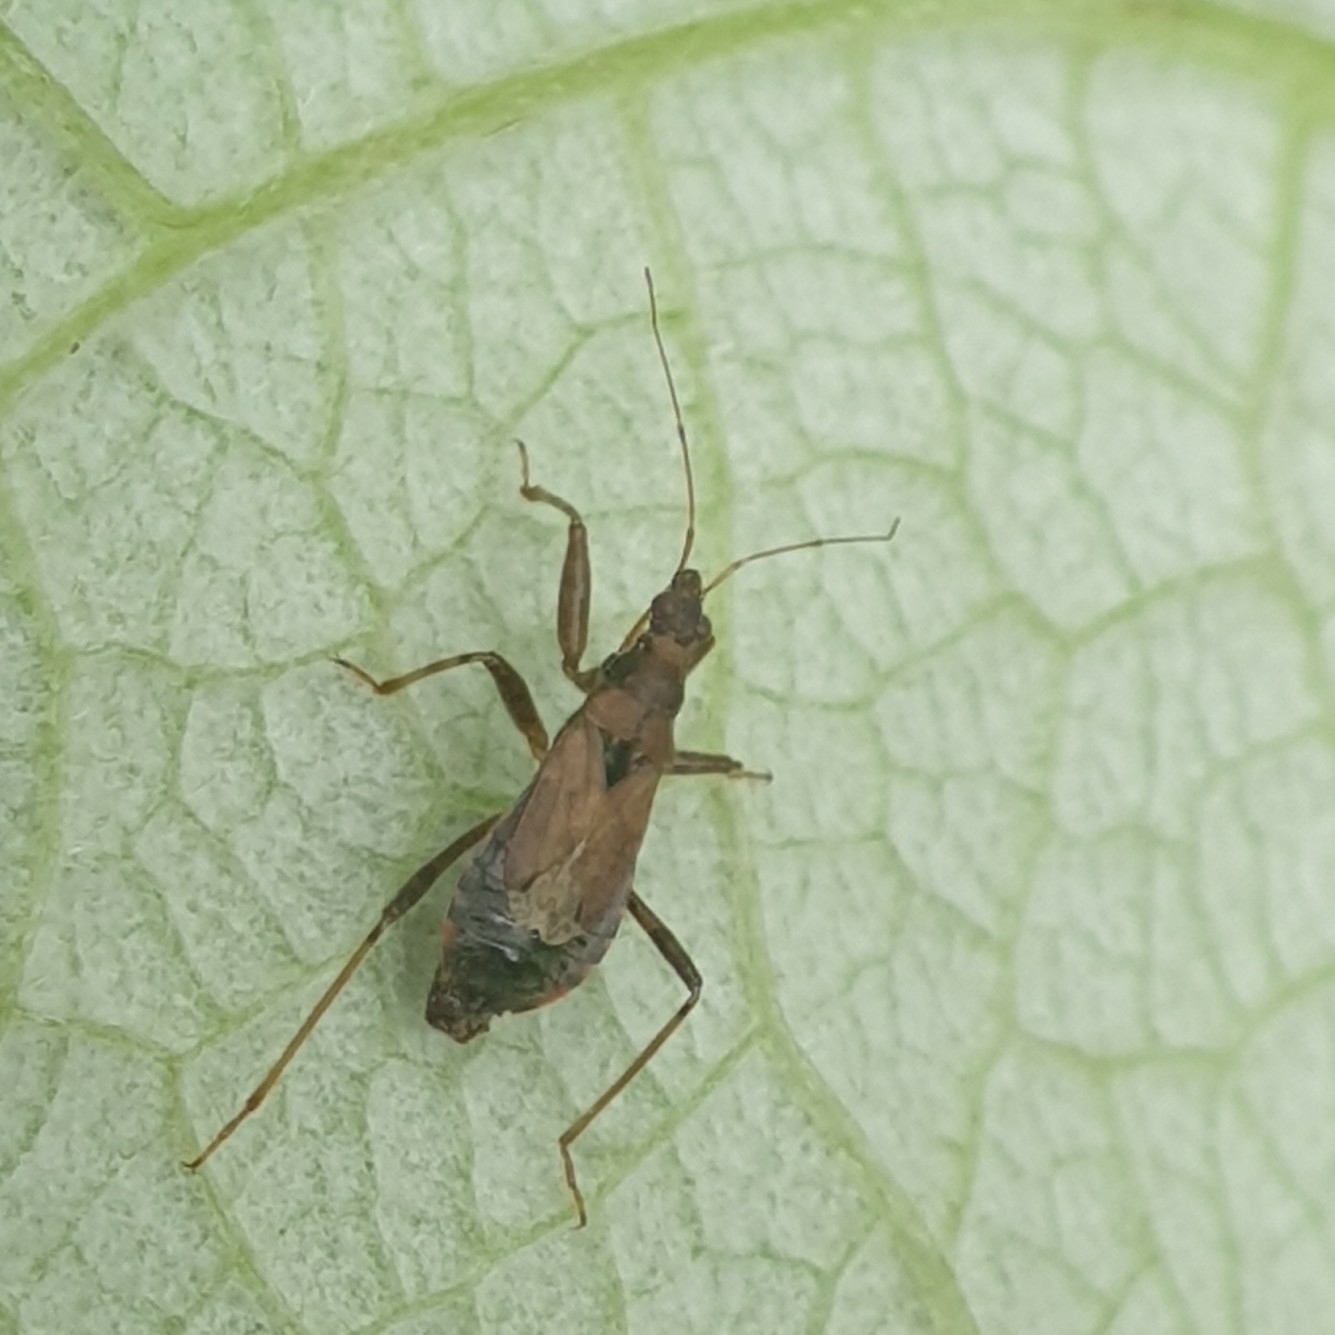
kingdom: Animalia
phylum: Arthropoda
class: Insecta
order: Hemiptera
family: Nabidae
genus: Himacerus
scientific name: Himacerus mirmicoides
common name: Ant damsel bug
